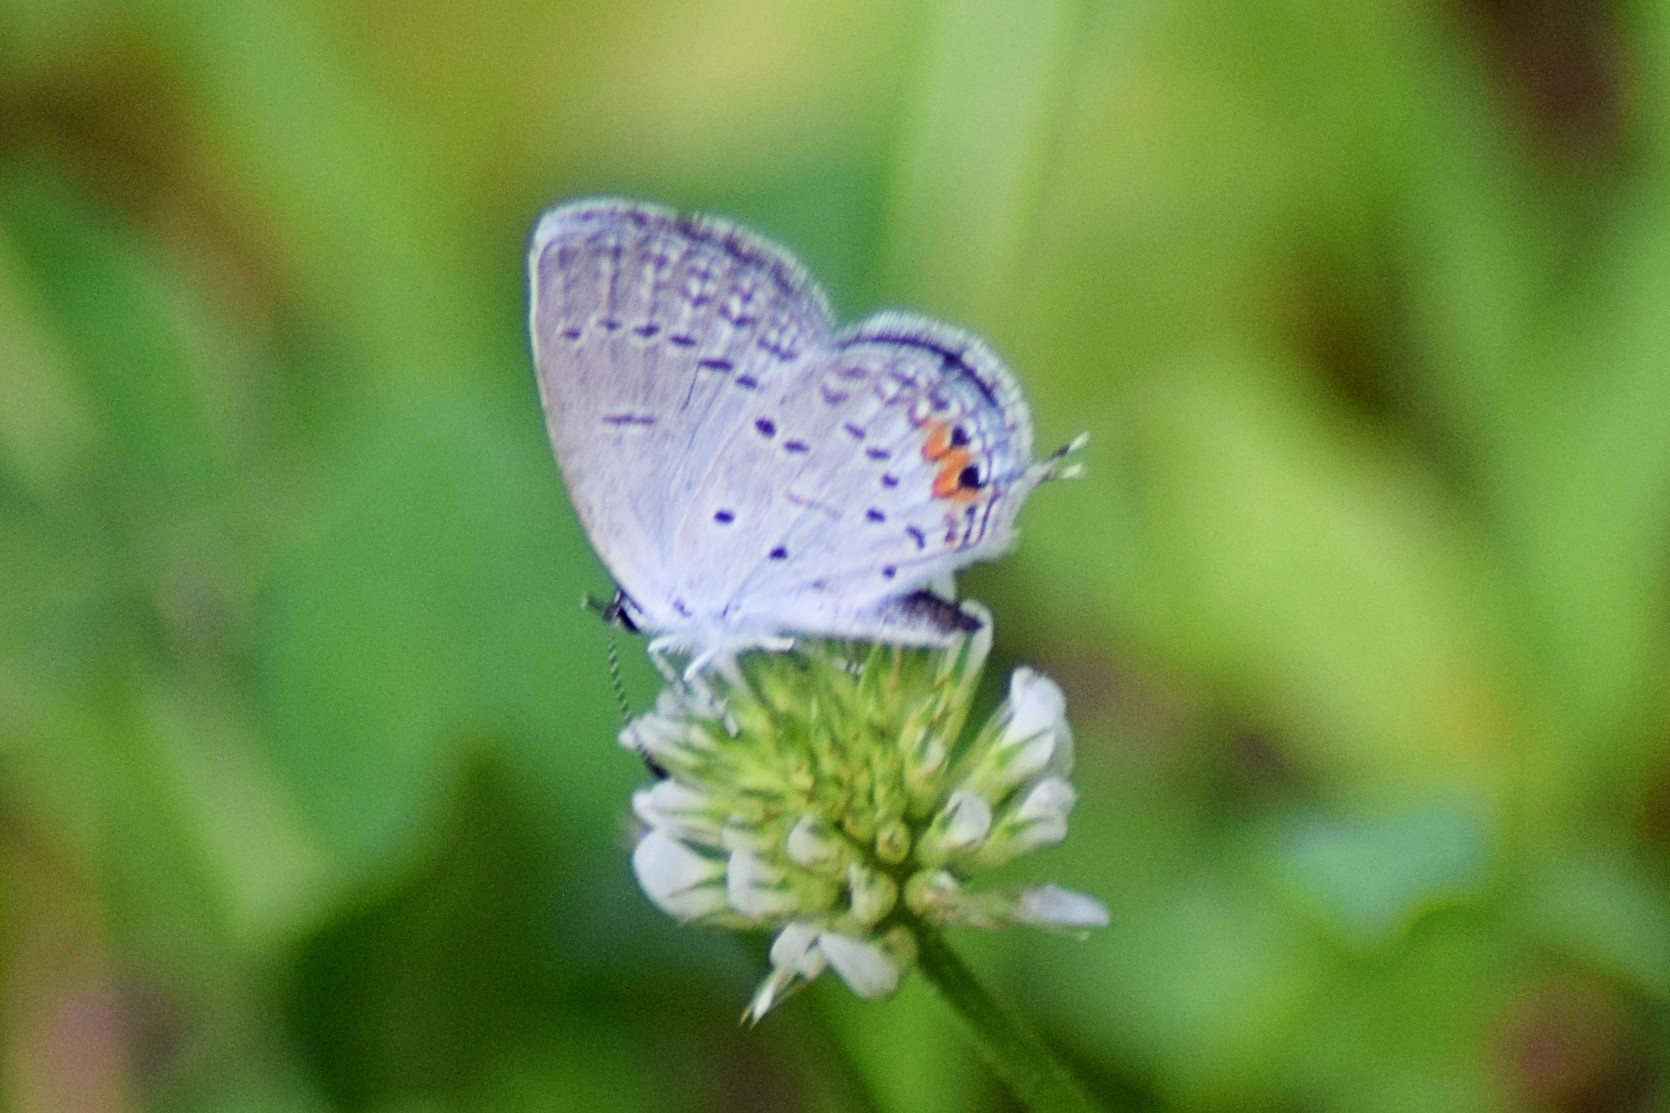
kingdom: Animalia
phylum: Arthropoda
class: Insecta
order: Lepidoptera
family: Lycaenidae
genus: Elkalyce
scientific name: Elkalyce comyntas
